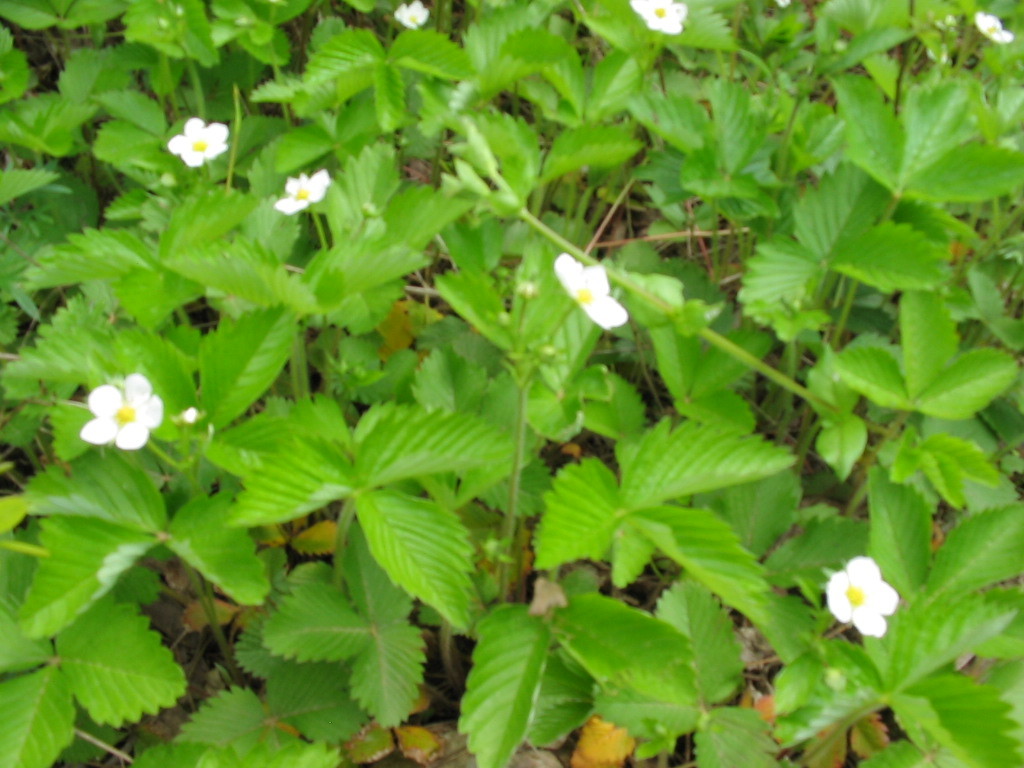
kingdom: Plantae
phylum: Tracheophyta
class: Magnoliopsida
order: Rosales
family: Rosaceae
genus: Fragaria
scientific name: Fragaria vesca
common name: Wild strawberry
